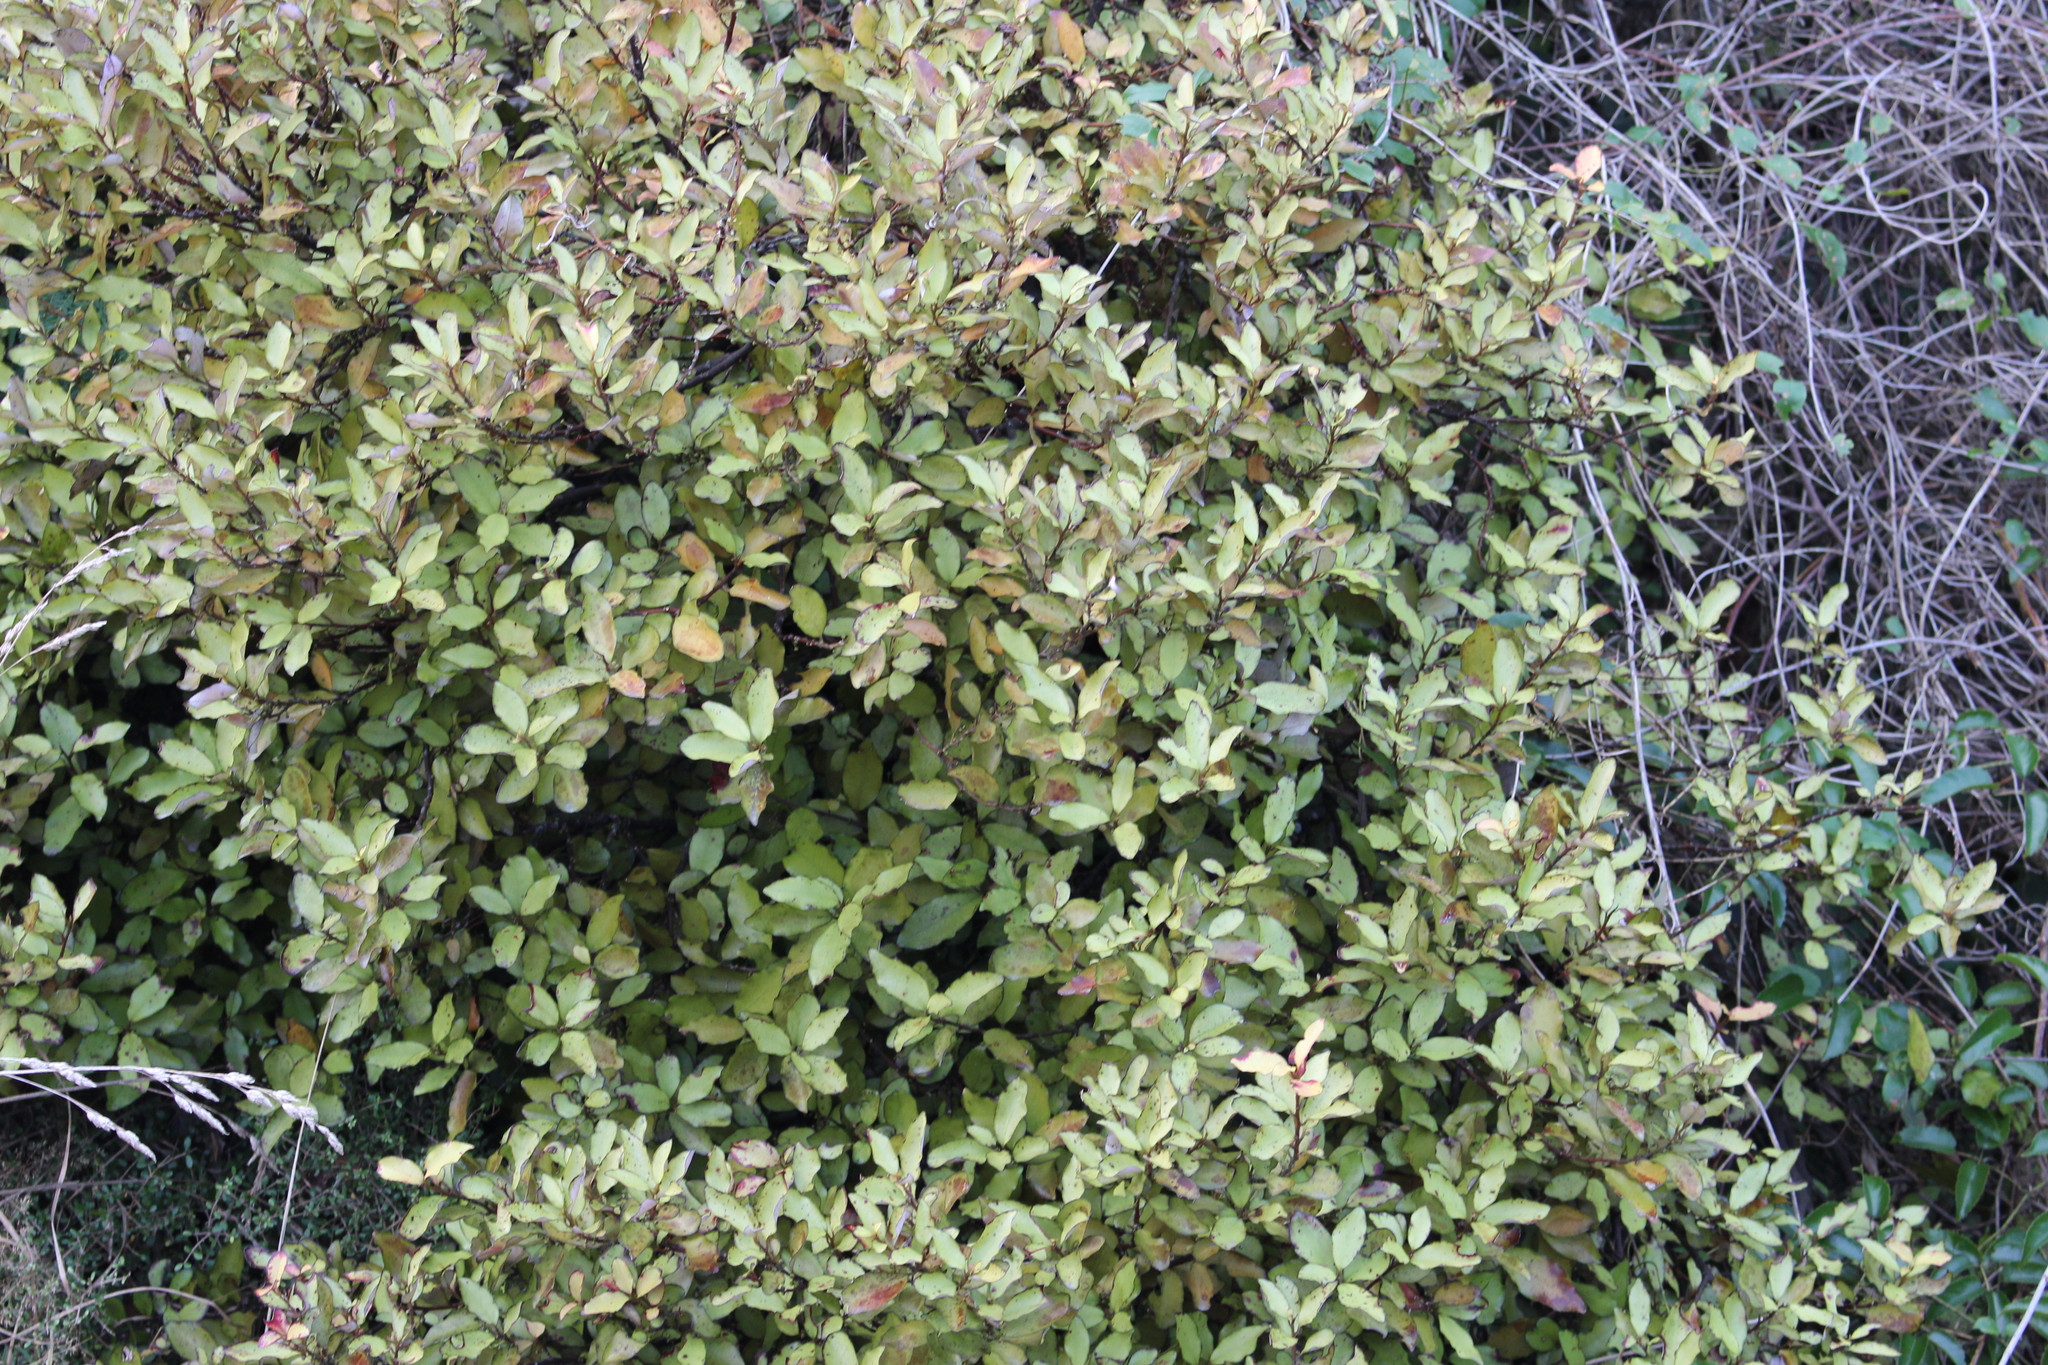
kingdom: Plantae
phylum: Tracheophyta
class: Magnoliopsida
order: Canellales
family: Winteraceae
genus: Pseudowintera
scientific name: Pseudowintera colorata
